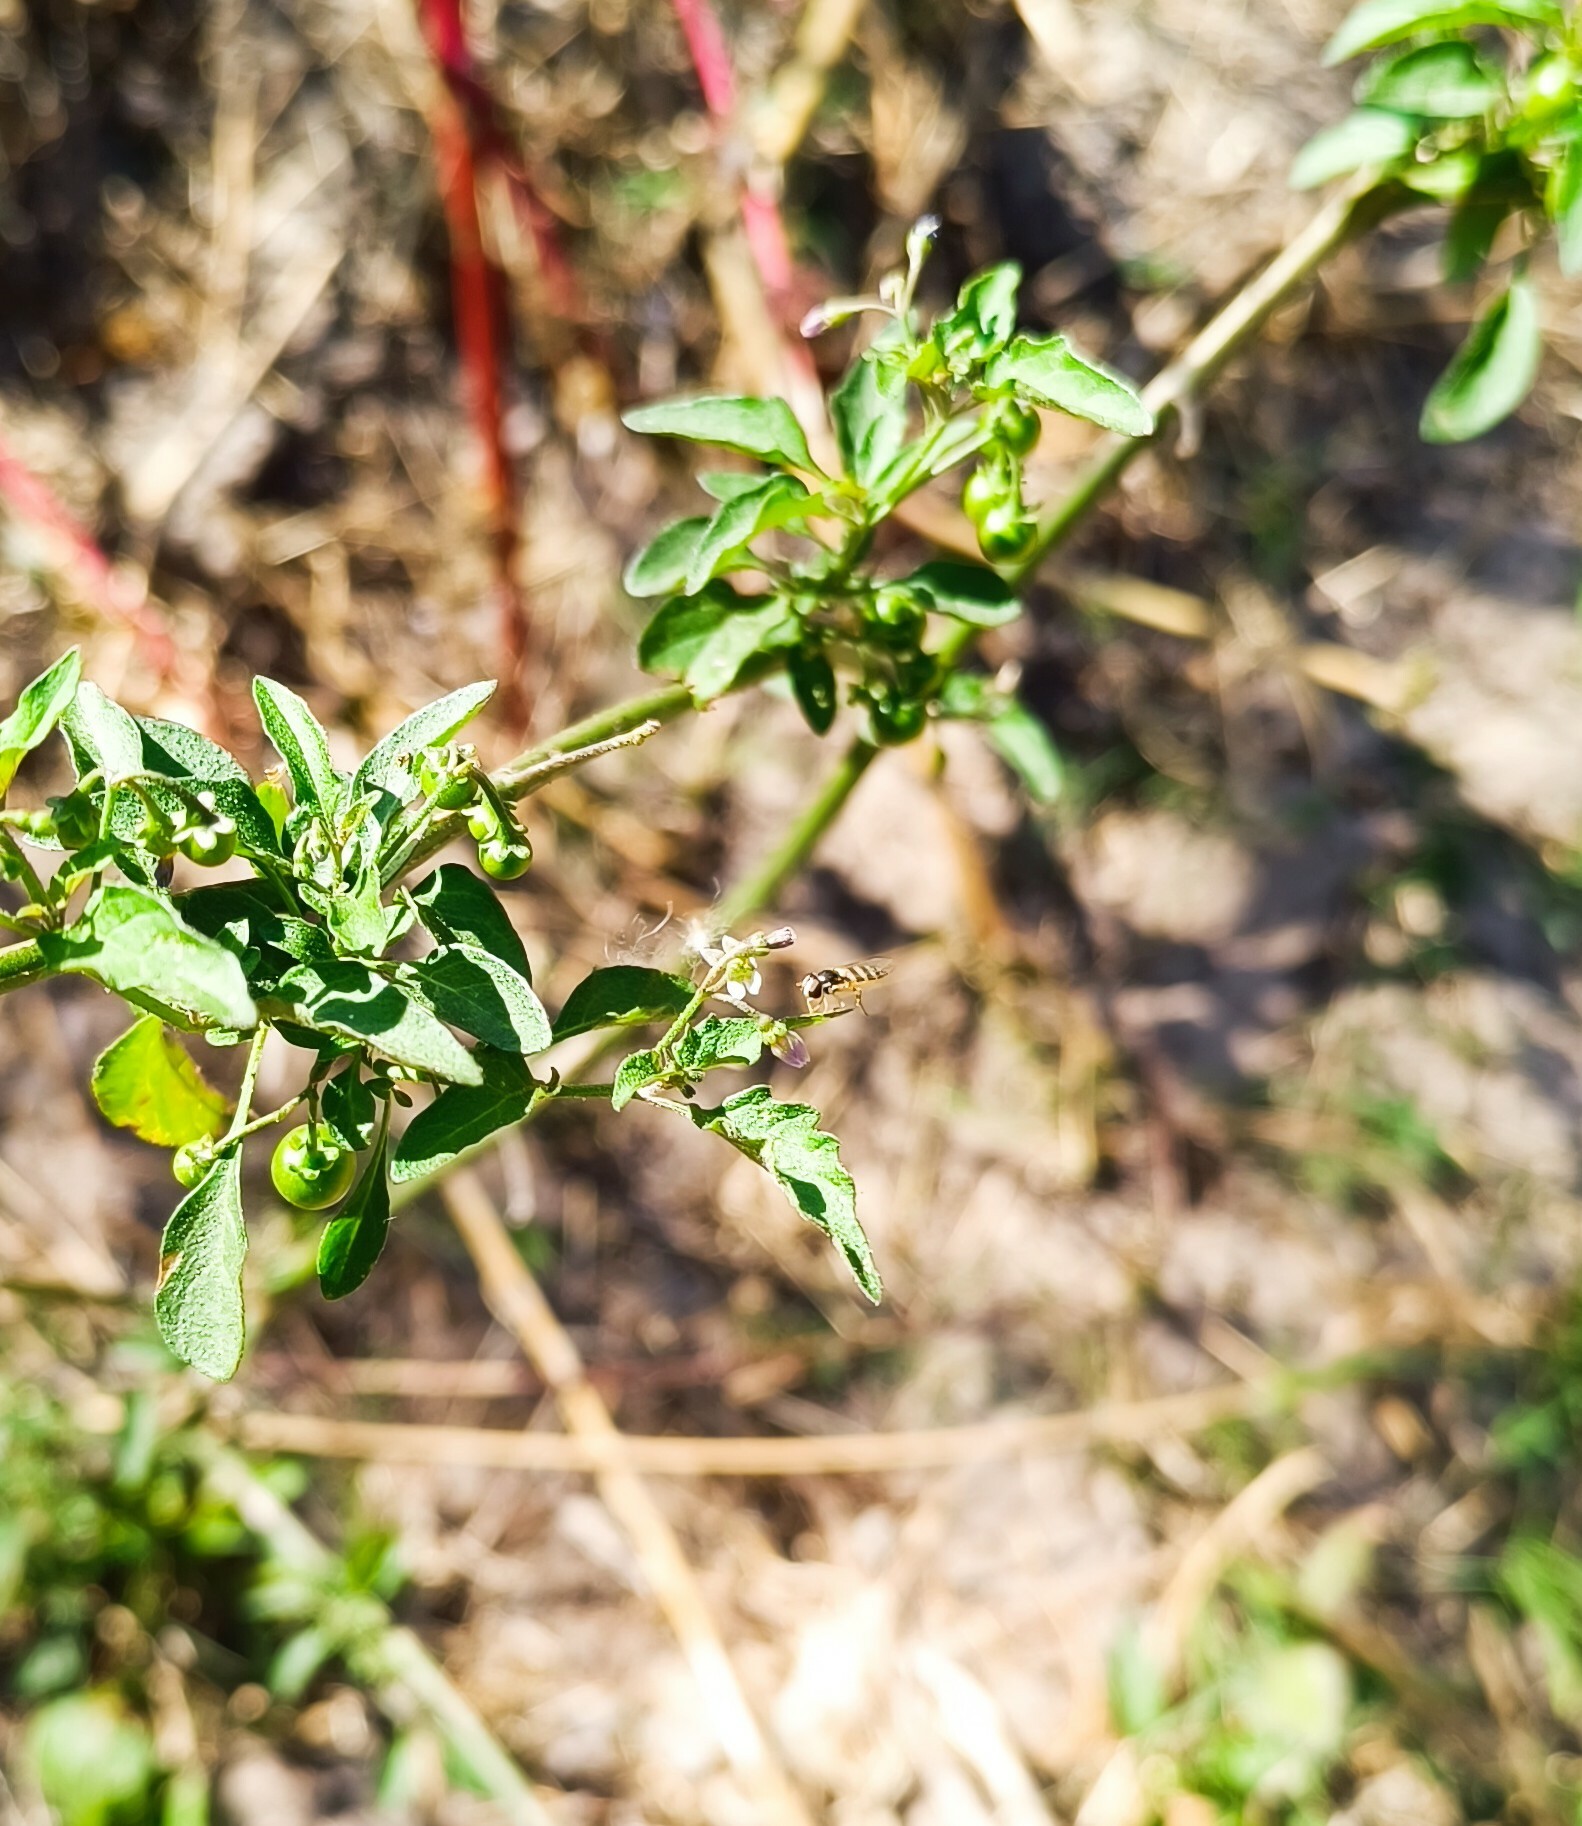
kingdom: Plantae
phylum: Tracheophyta
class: Magnoliopsida
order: Solanales
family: Solanaceae
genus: Solanum
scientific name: Solanum nigrescens
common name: Divine nightshade
